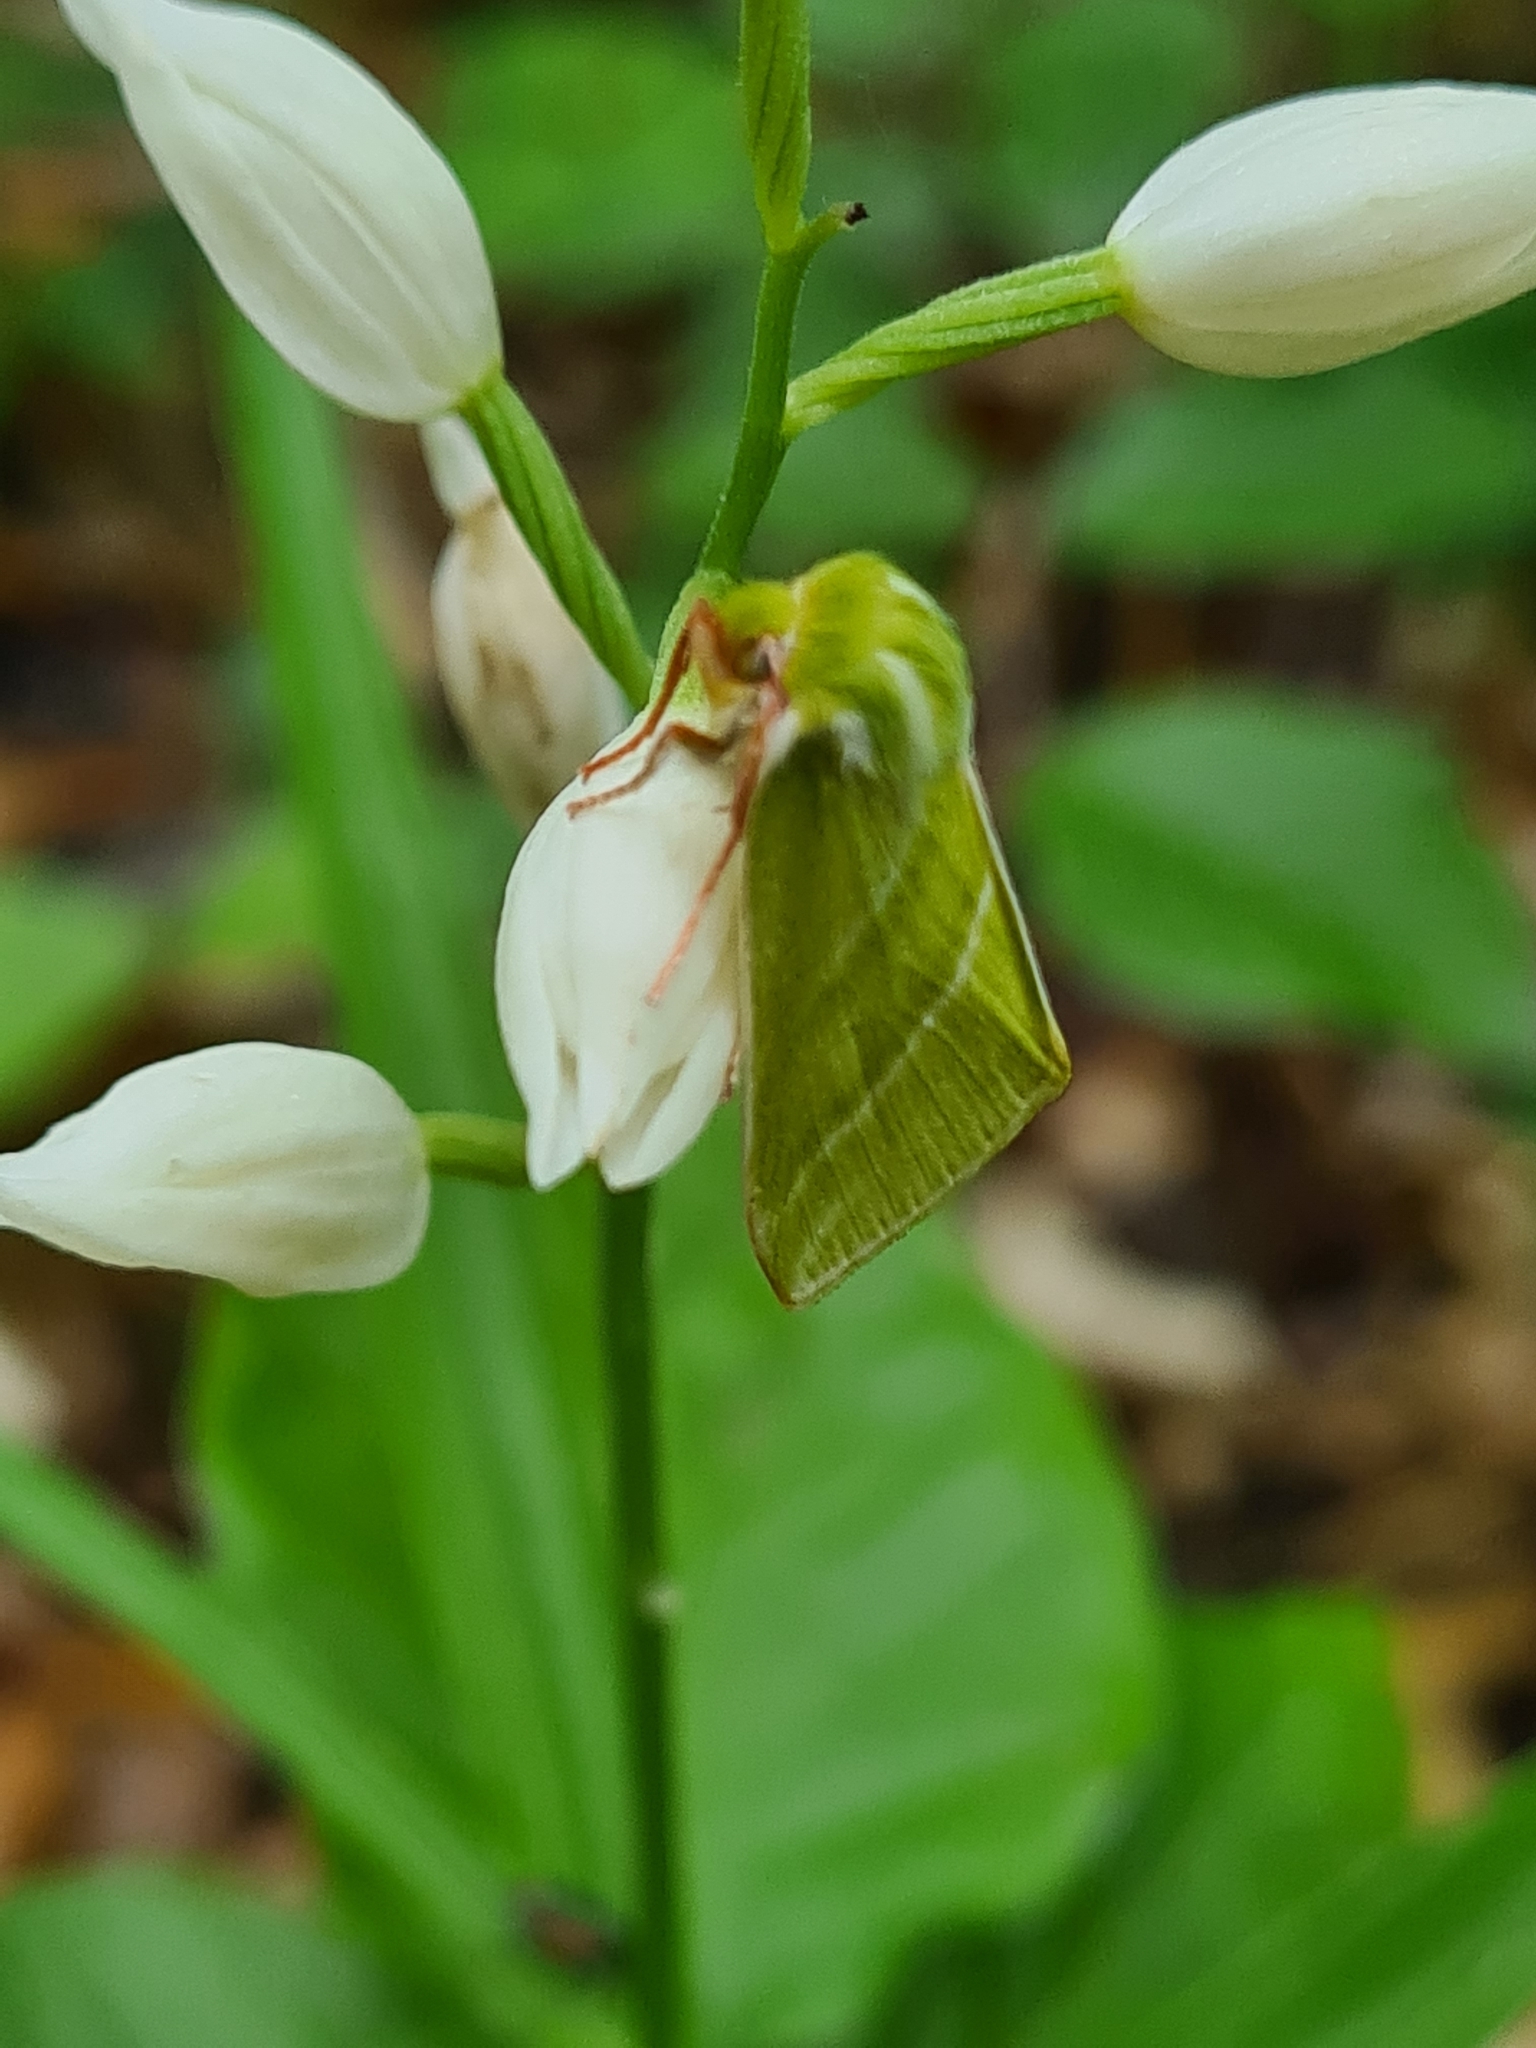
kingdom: Animalia
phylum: Arthropoda
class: Insecta
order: Lepidoptera
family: Nolidae
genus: Pseudoips
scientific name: Pseudoips prasinana
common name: Green silver-lines
